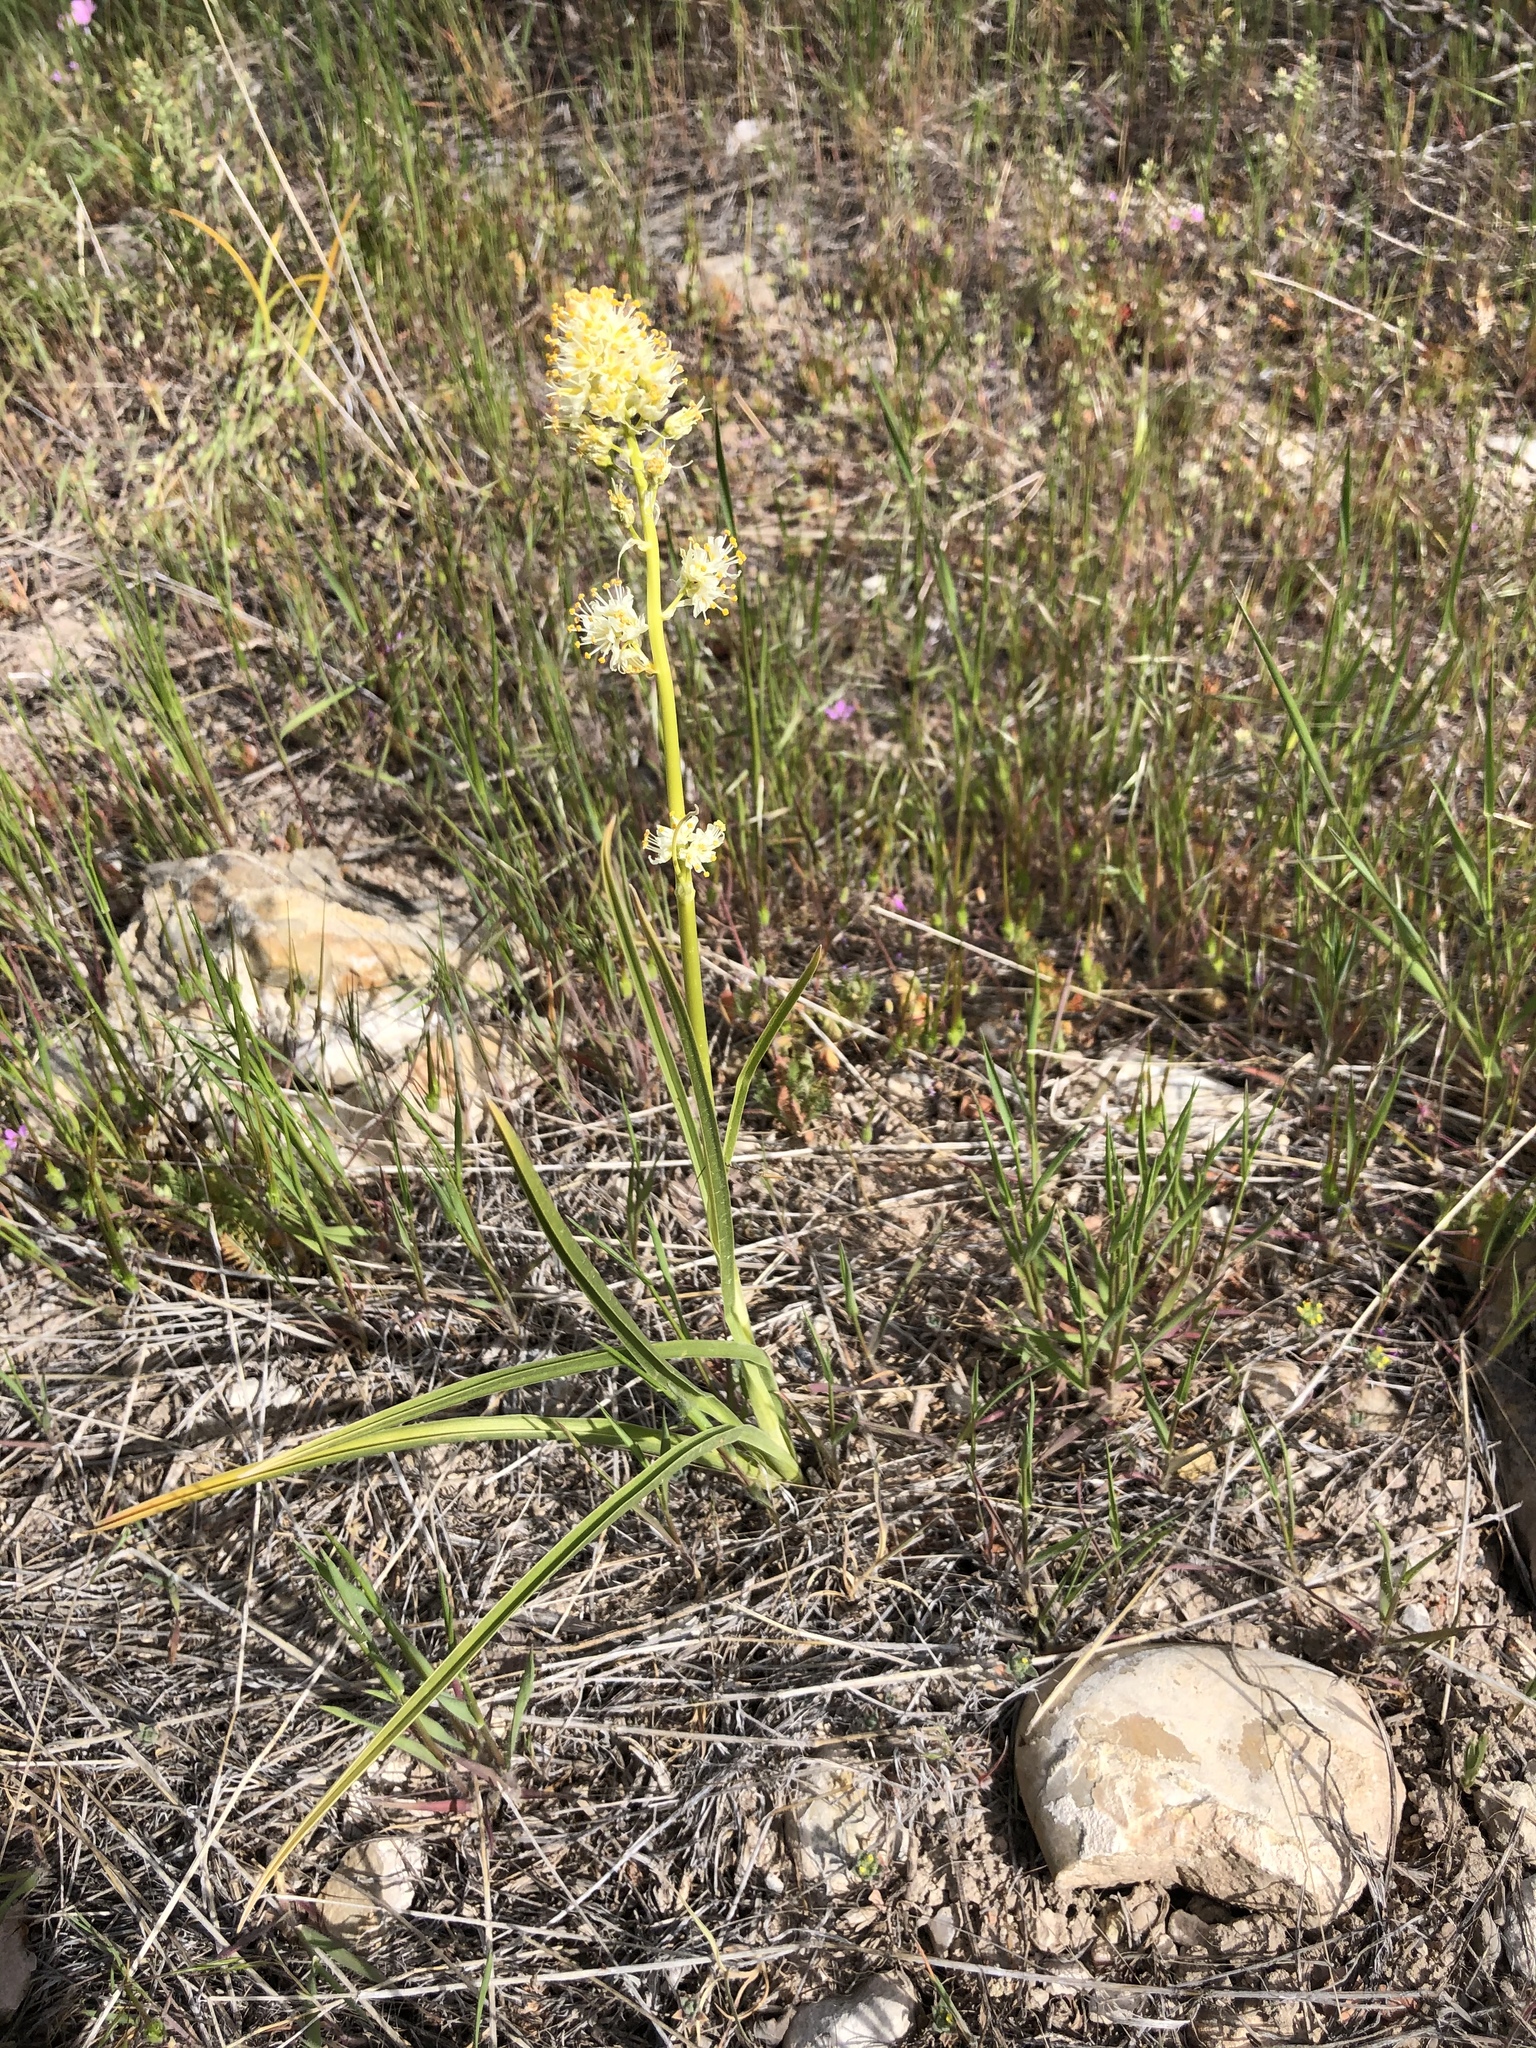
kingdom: Plantae
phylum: Tracheophyta
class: Liliopsida
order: Liliales
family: Melanthiaceae
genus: Toxicoscordion
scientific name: Toxicoscordion paniculatum
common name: Foothill death camas
